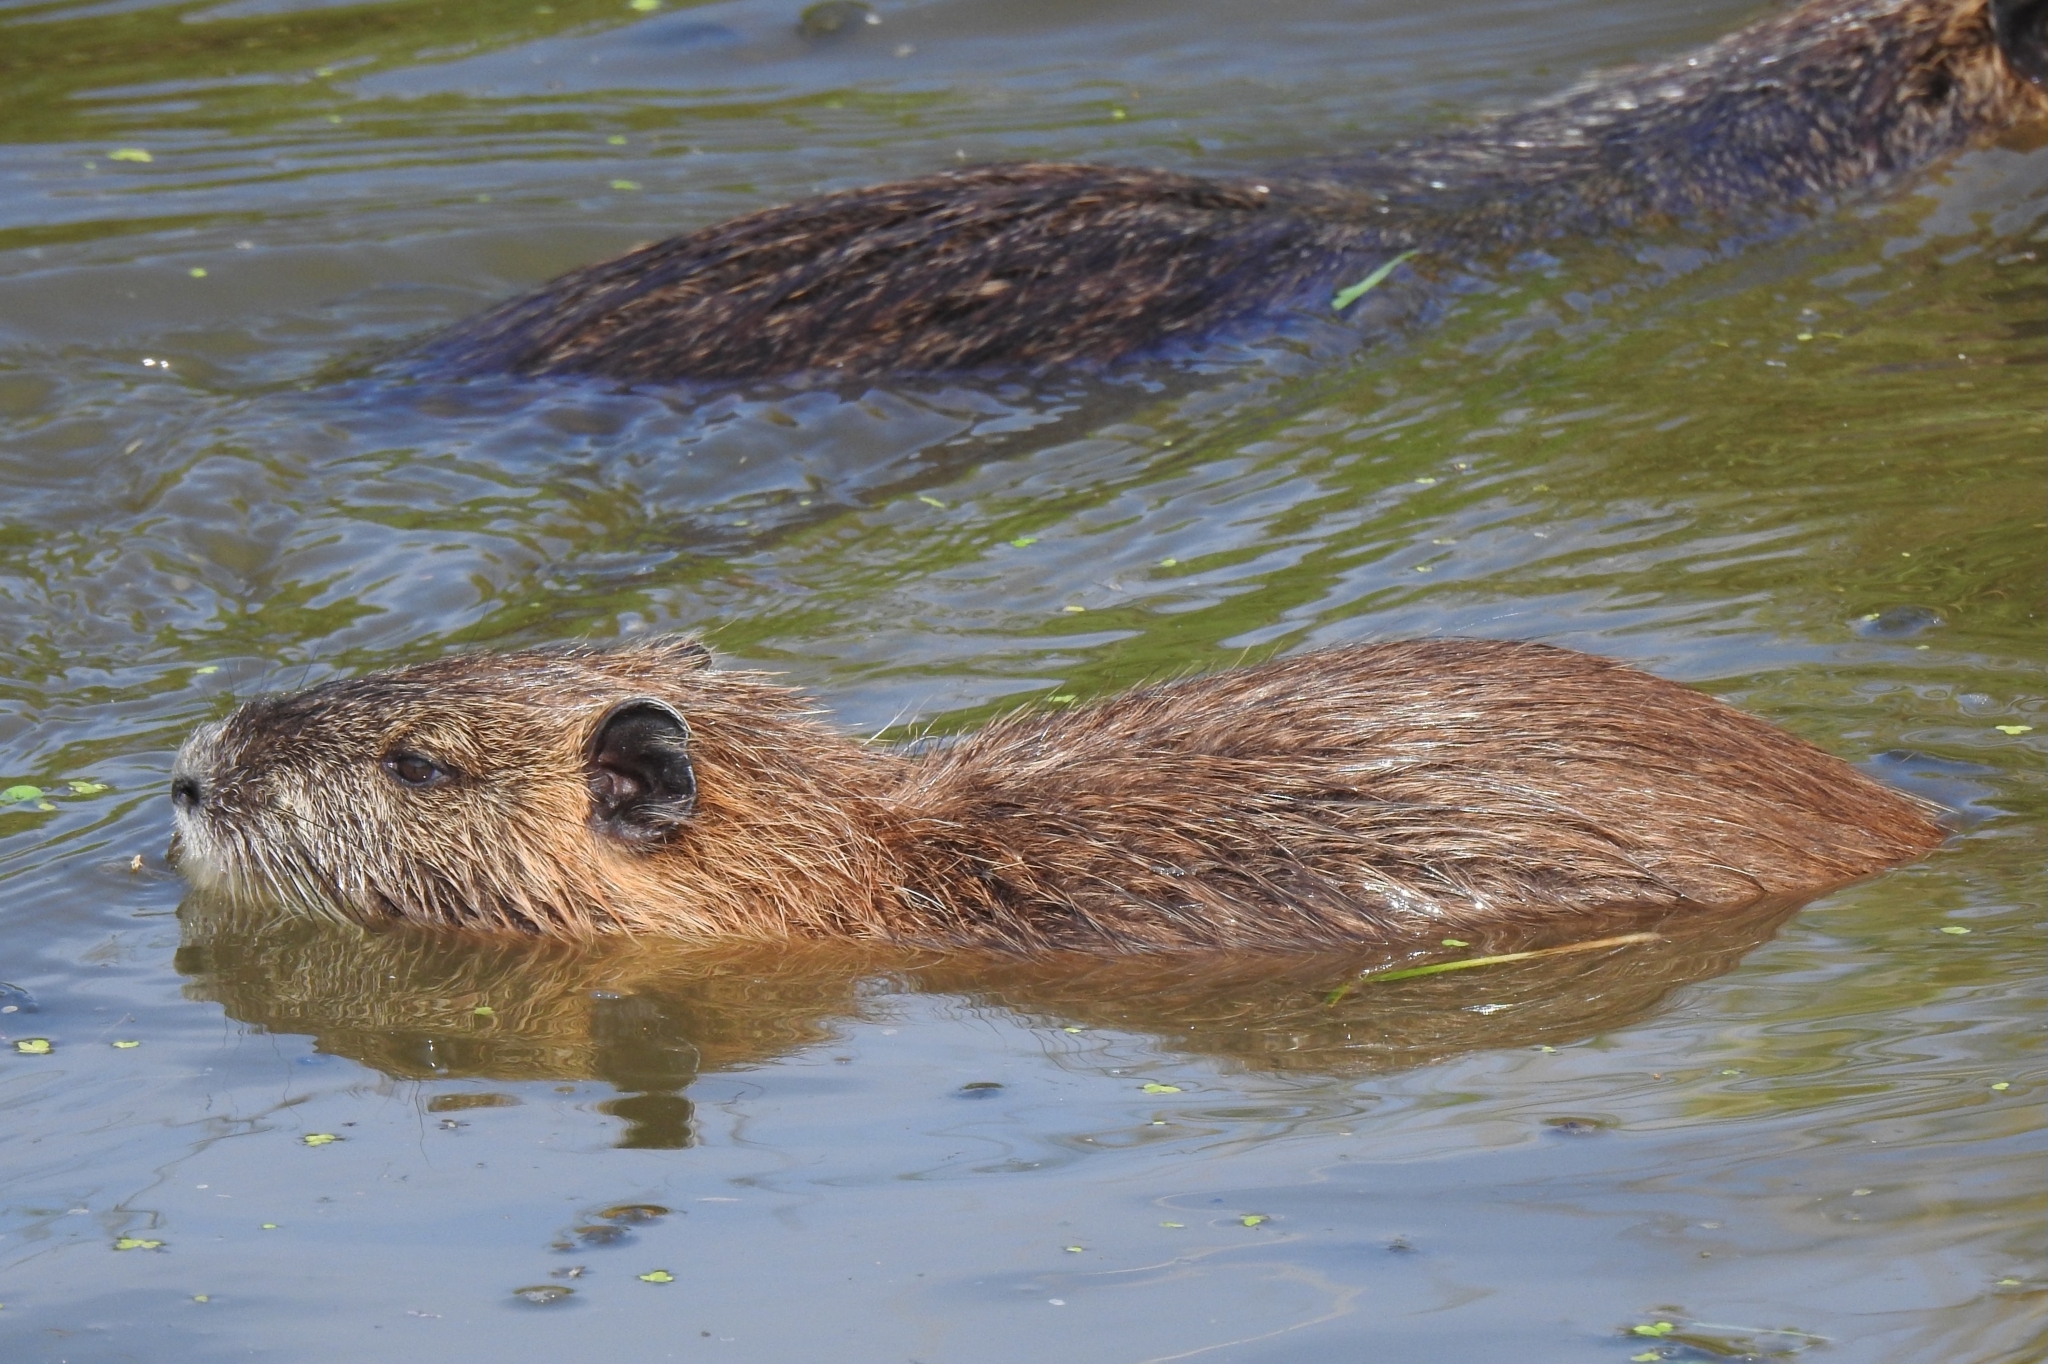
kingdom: Animalia
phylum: Chordata
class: Mammalia
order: Rodentia
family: Myocastoridae
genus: Myocastor
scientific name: Myocastor coypus
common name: Coypu
